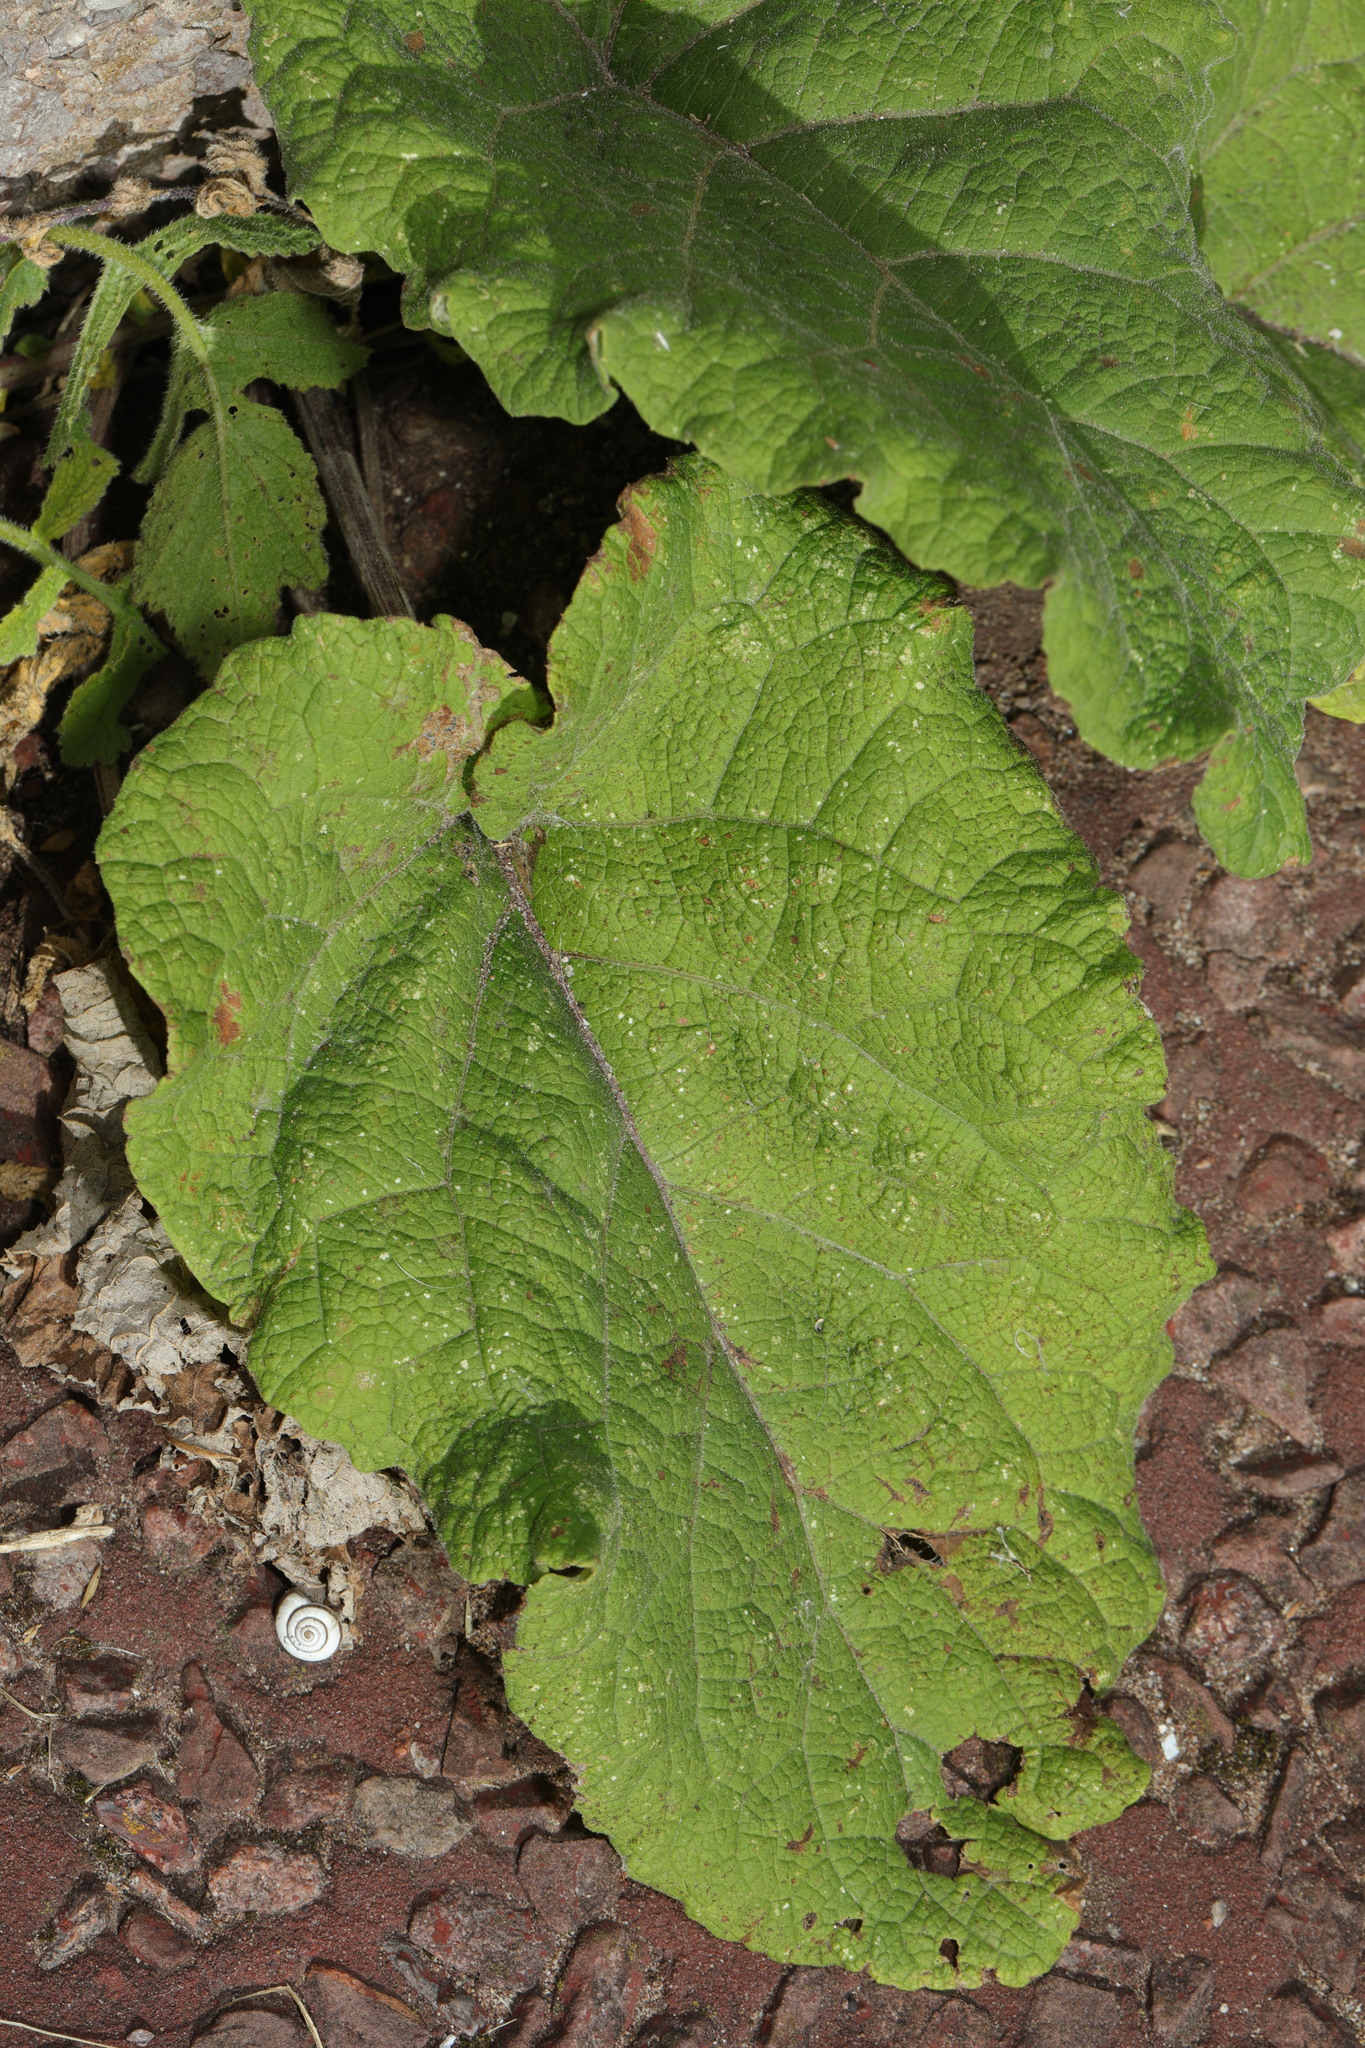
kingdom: Plantae
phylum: Tracheophyta
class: Magnoliopsida
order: Asterales
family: Asteraceae
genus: Arctium
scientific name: Arctium minus
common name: Lesser burdock
